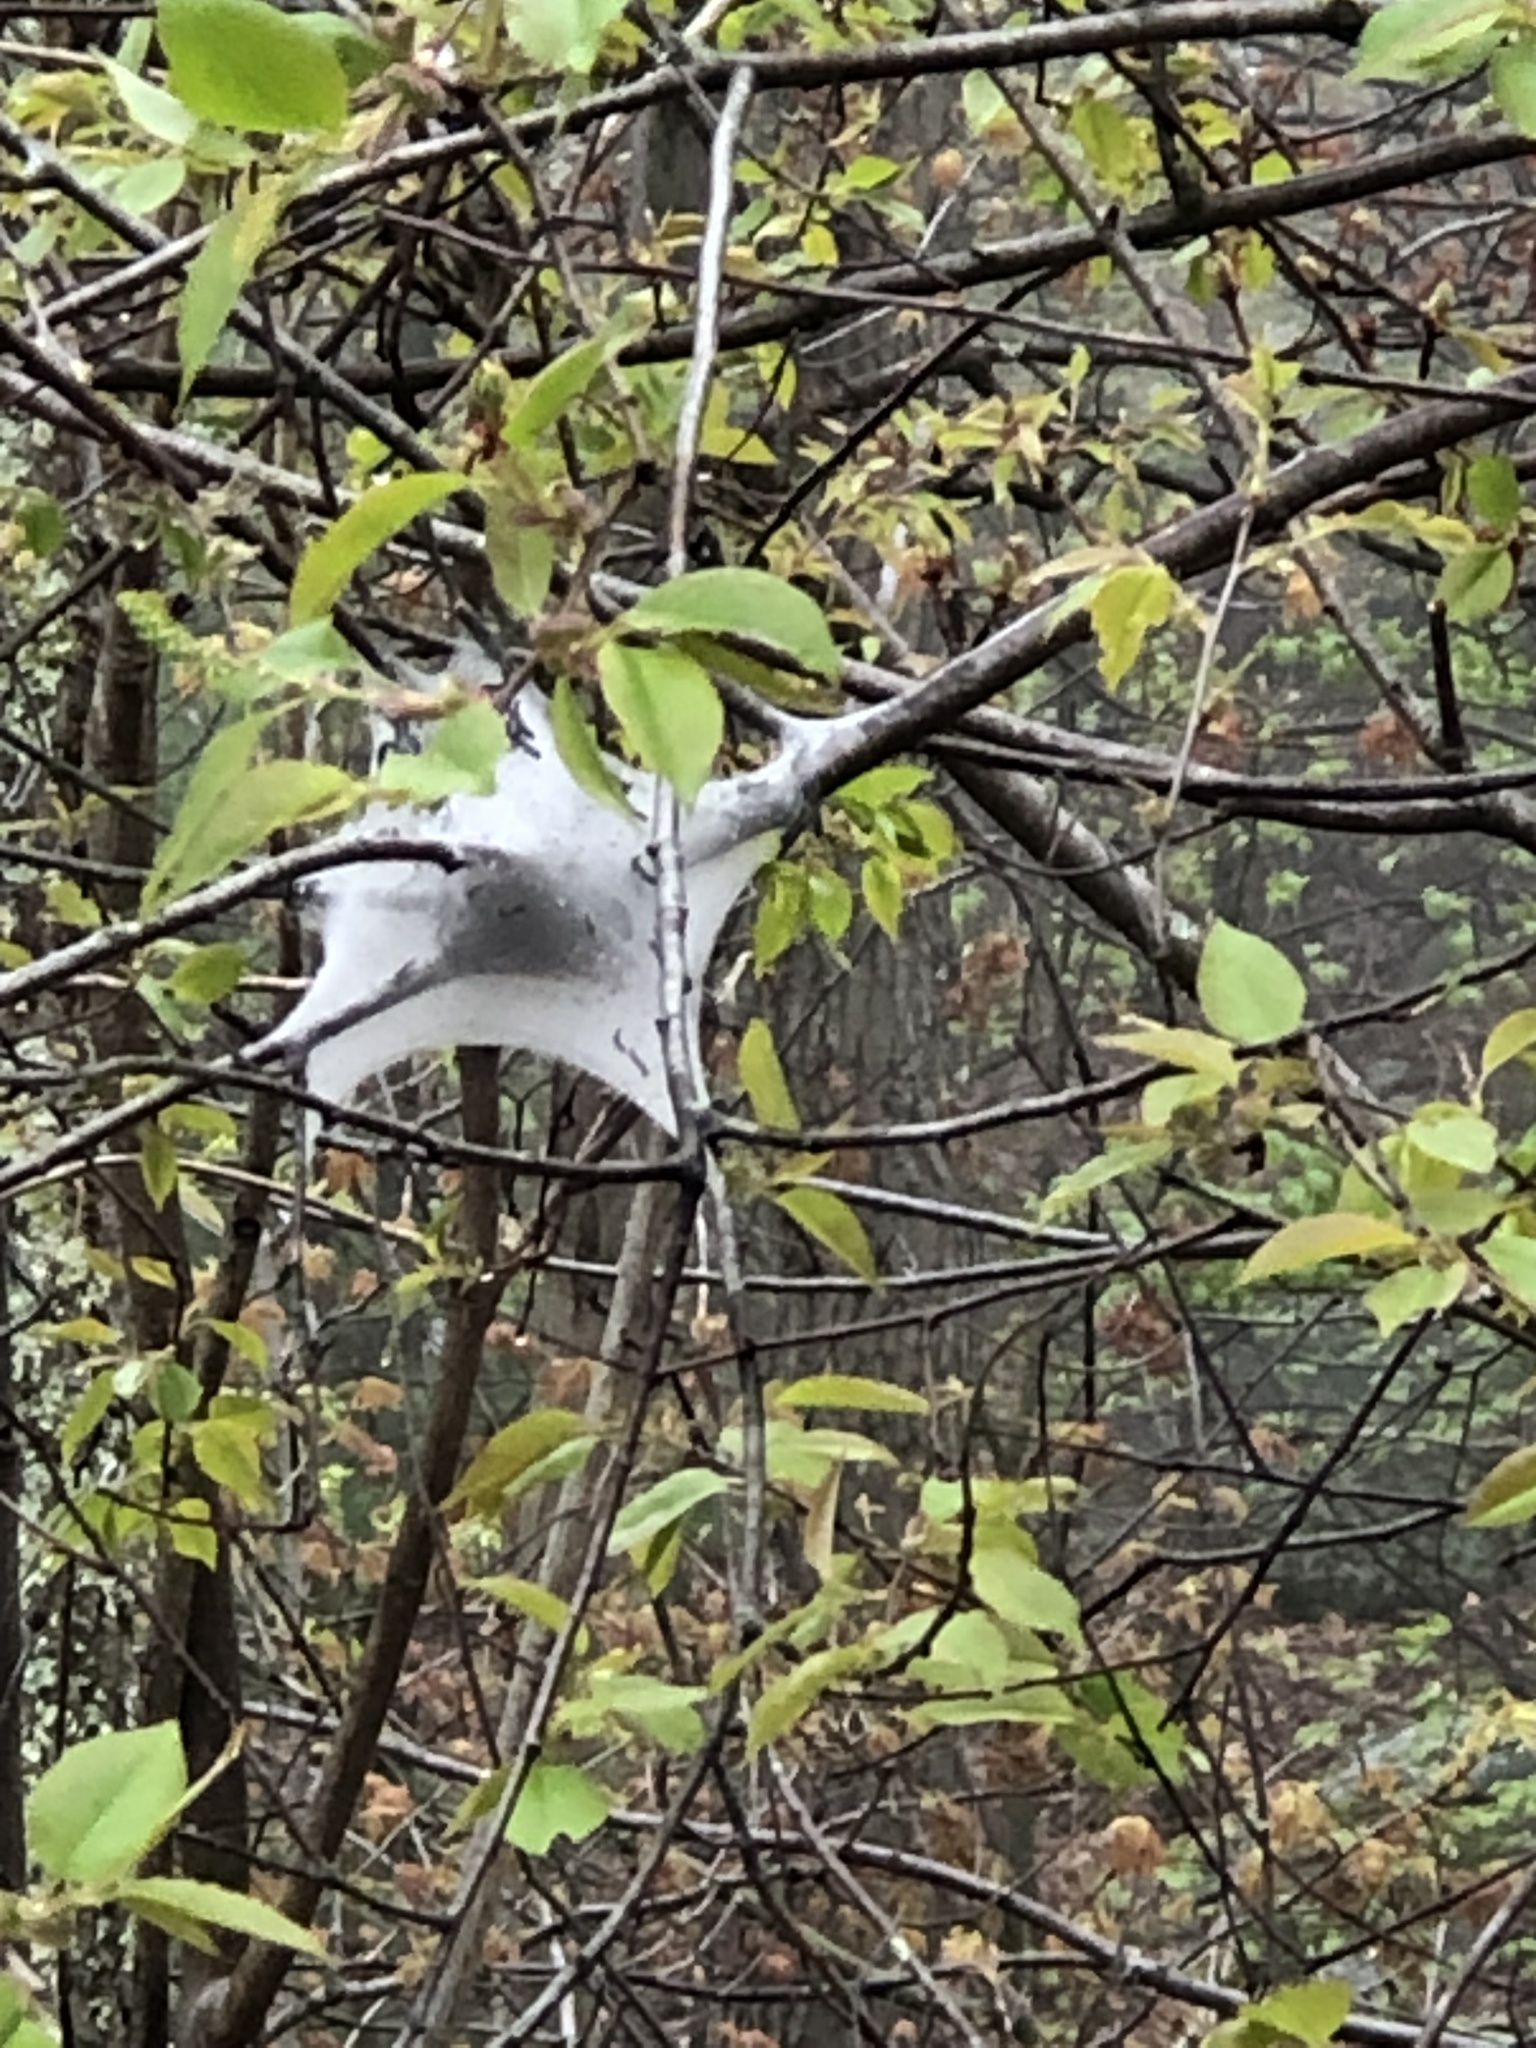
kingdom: Animalia
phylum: Arthropoda
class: Insecta
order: Lepidoptera
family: Lasiocampidae
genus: Malacosoma
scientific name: Malacosoma americana
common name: Eastern tent caterpillar moth
